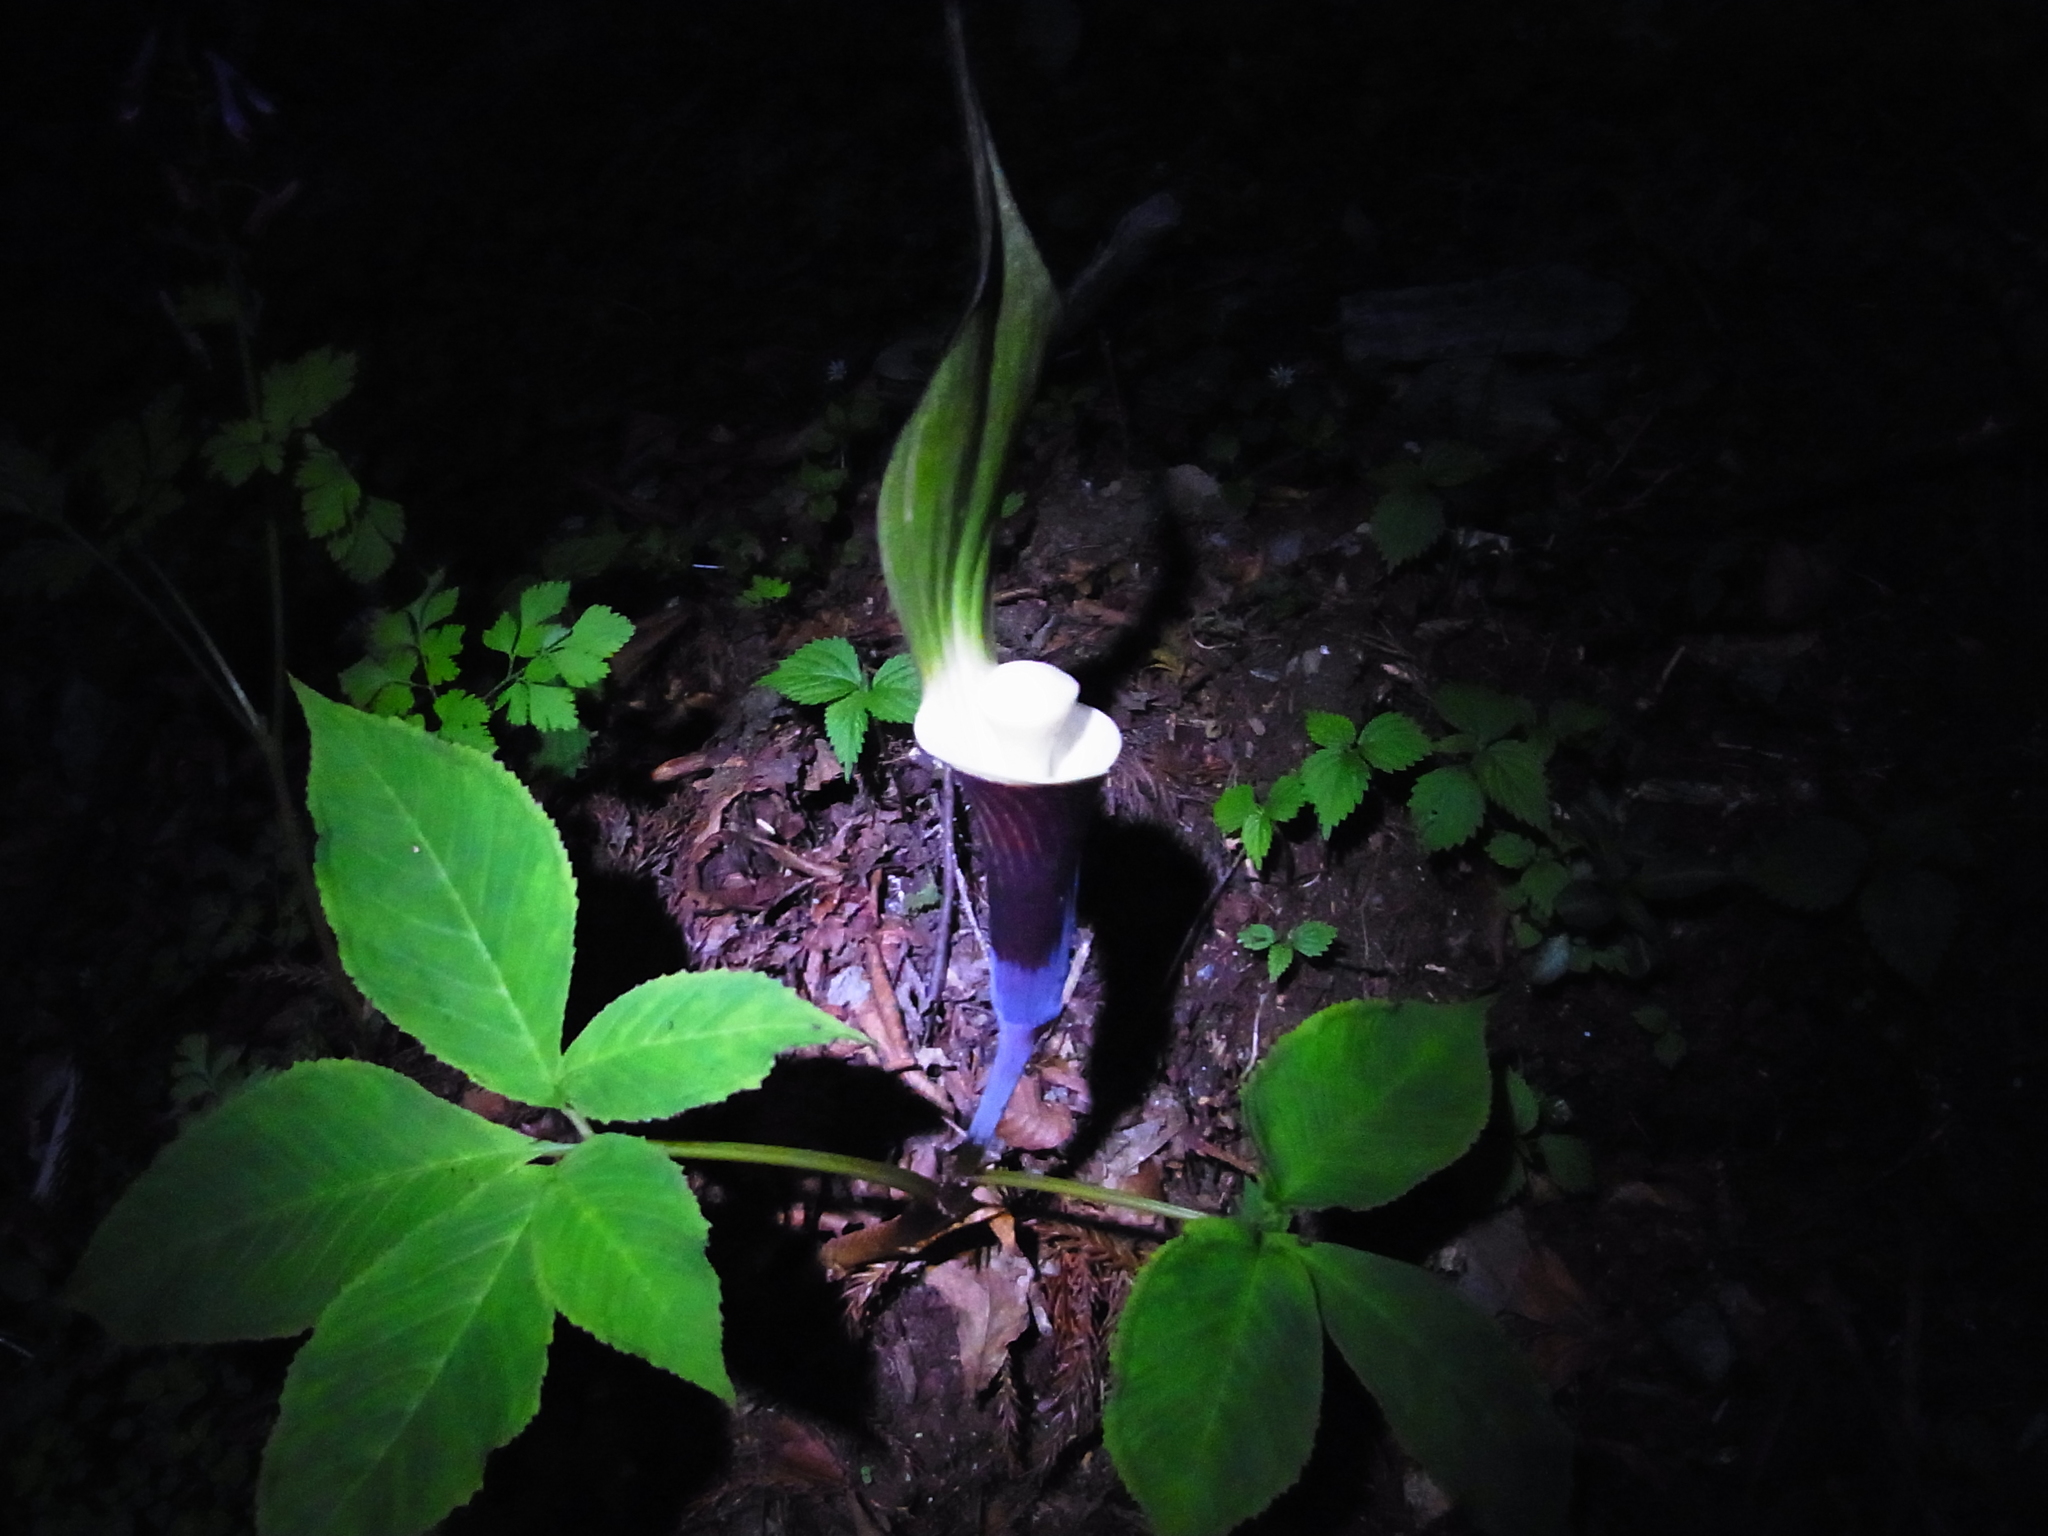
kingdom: Plantae
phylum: Tracheophyta
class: Liliopsida
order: Alismatales
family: Araceae
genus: Arisaema
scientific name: Arisaema sikokianum
